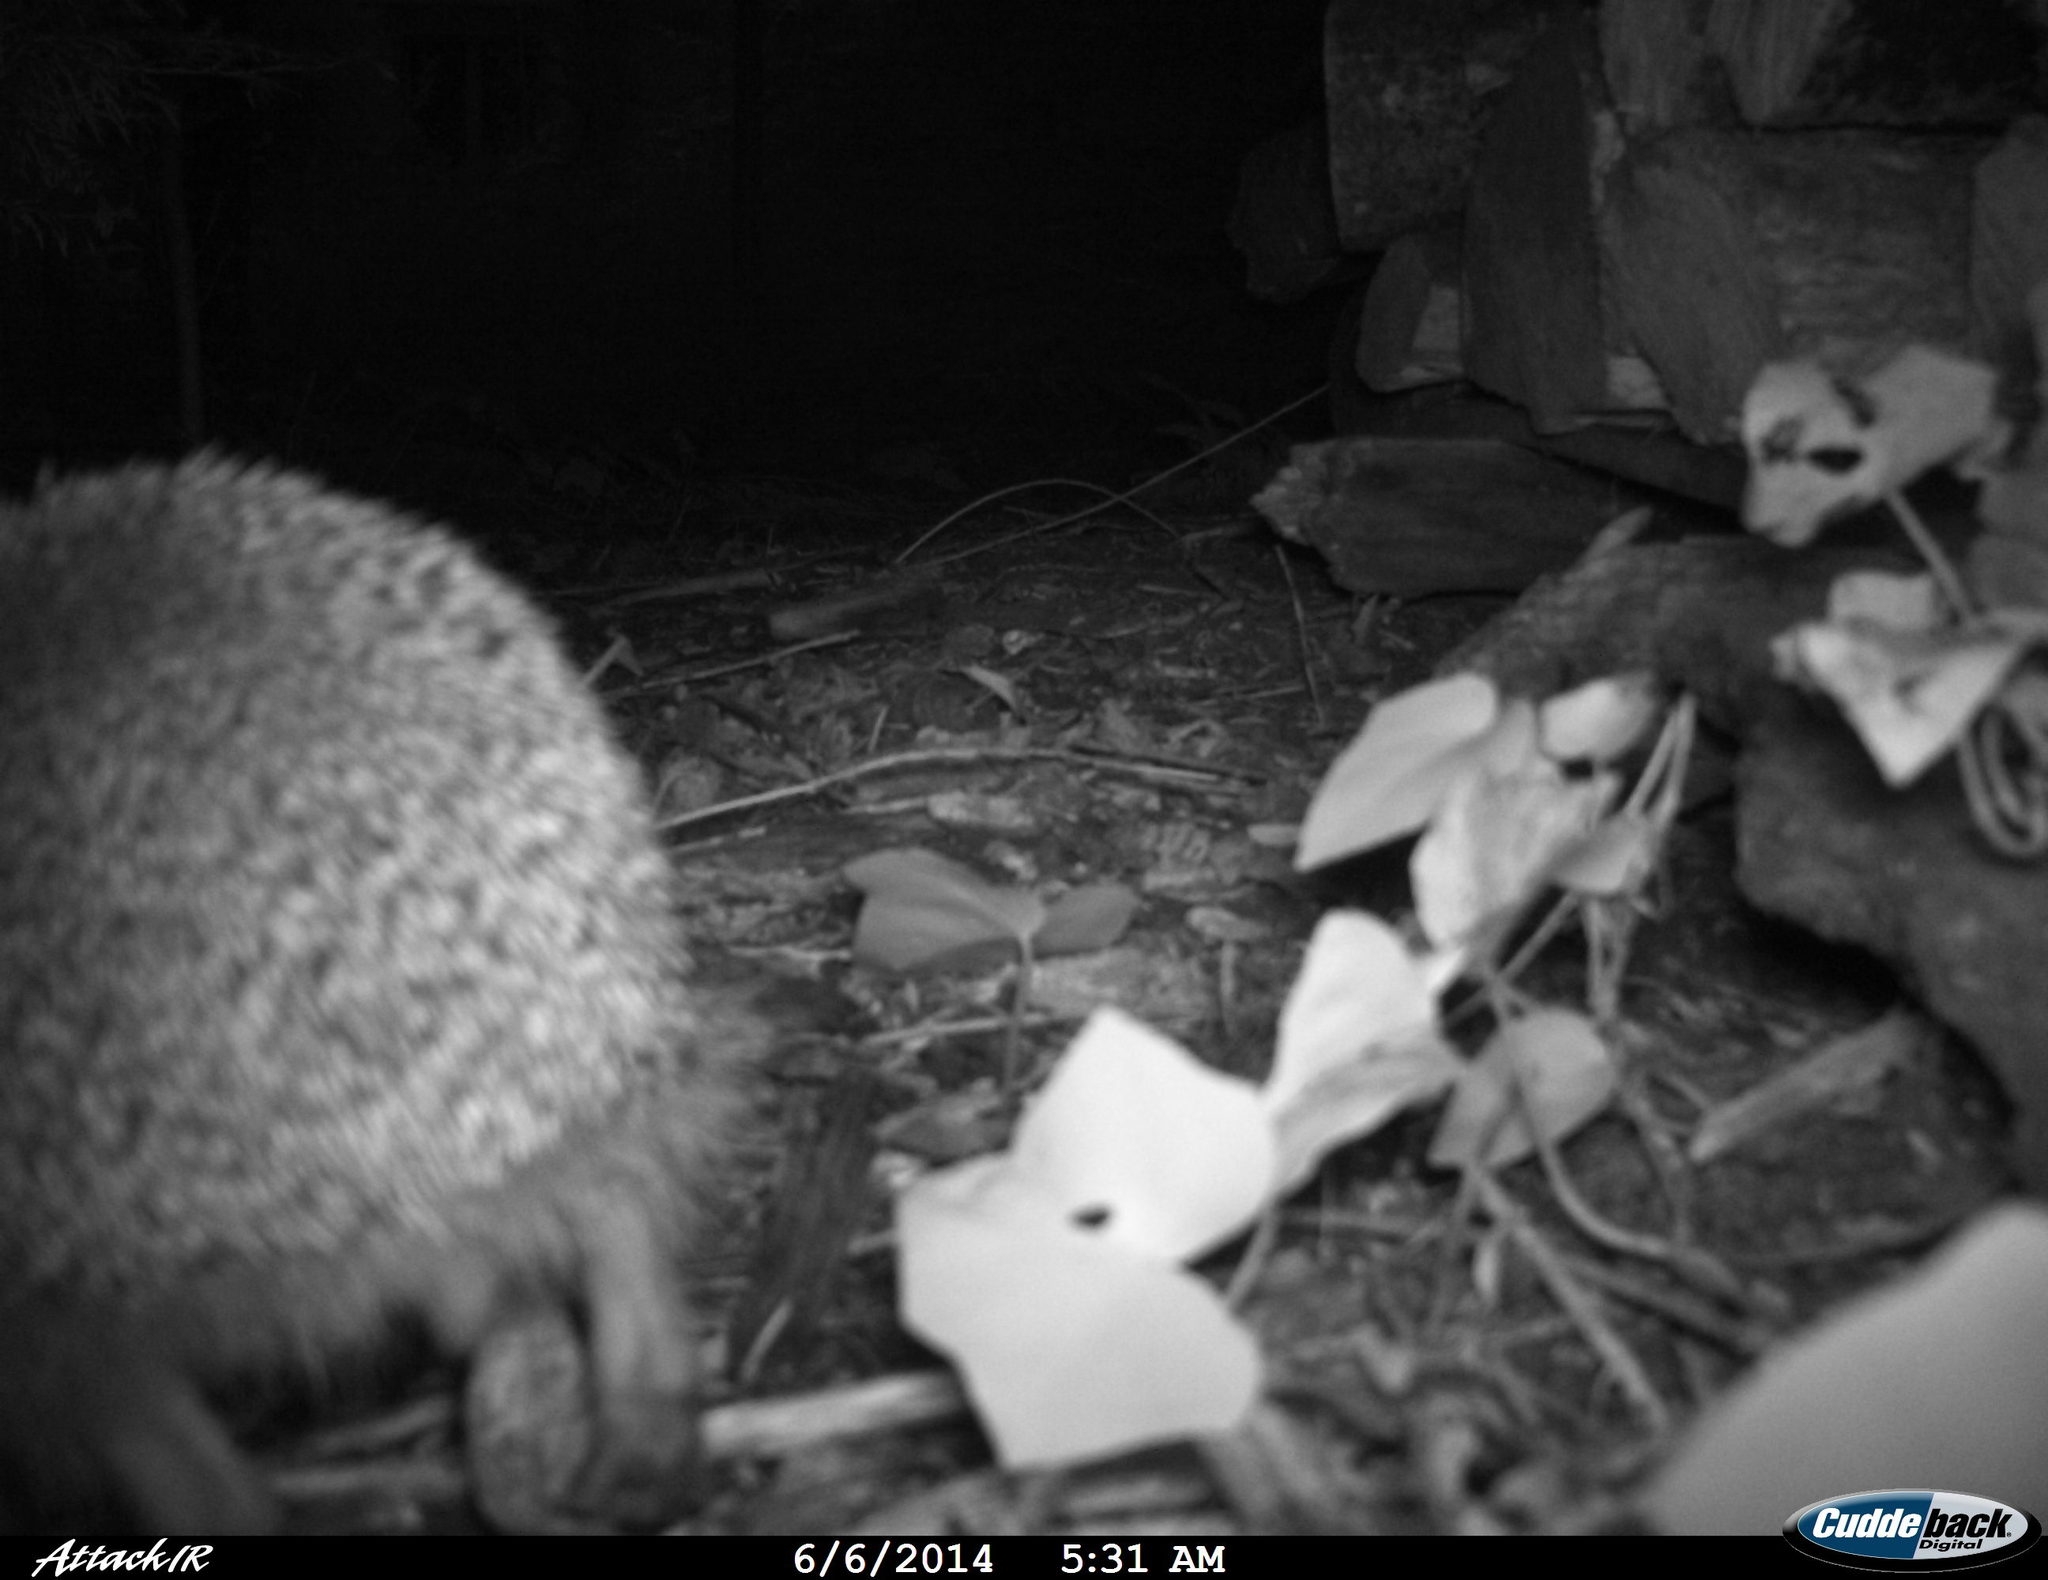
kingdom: Animalia
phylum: Chordata
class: Mammalia
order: Erinaceomorpha
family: Erinaceidae
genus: Erinaceus
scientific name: Erinaceus europaeus
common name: West european hedgehog
